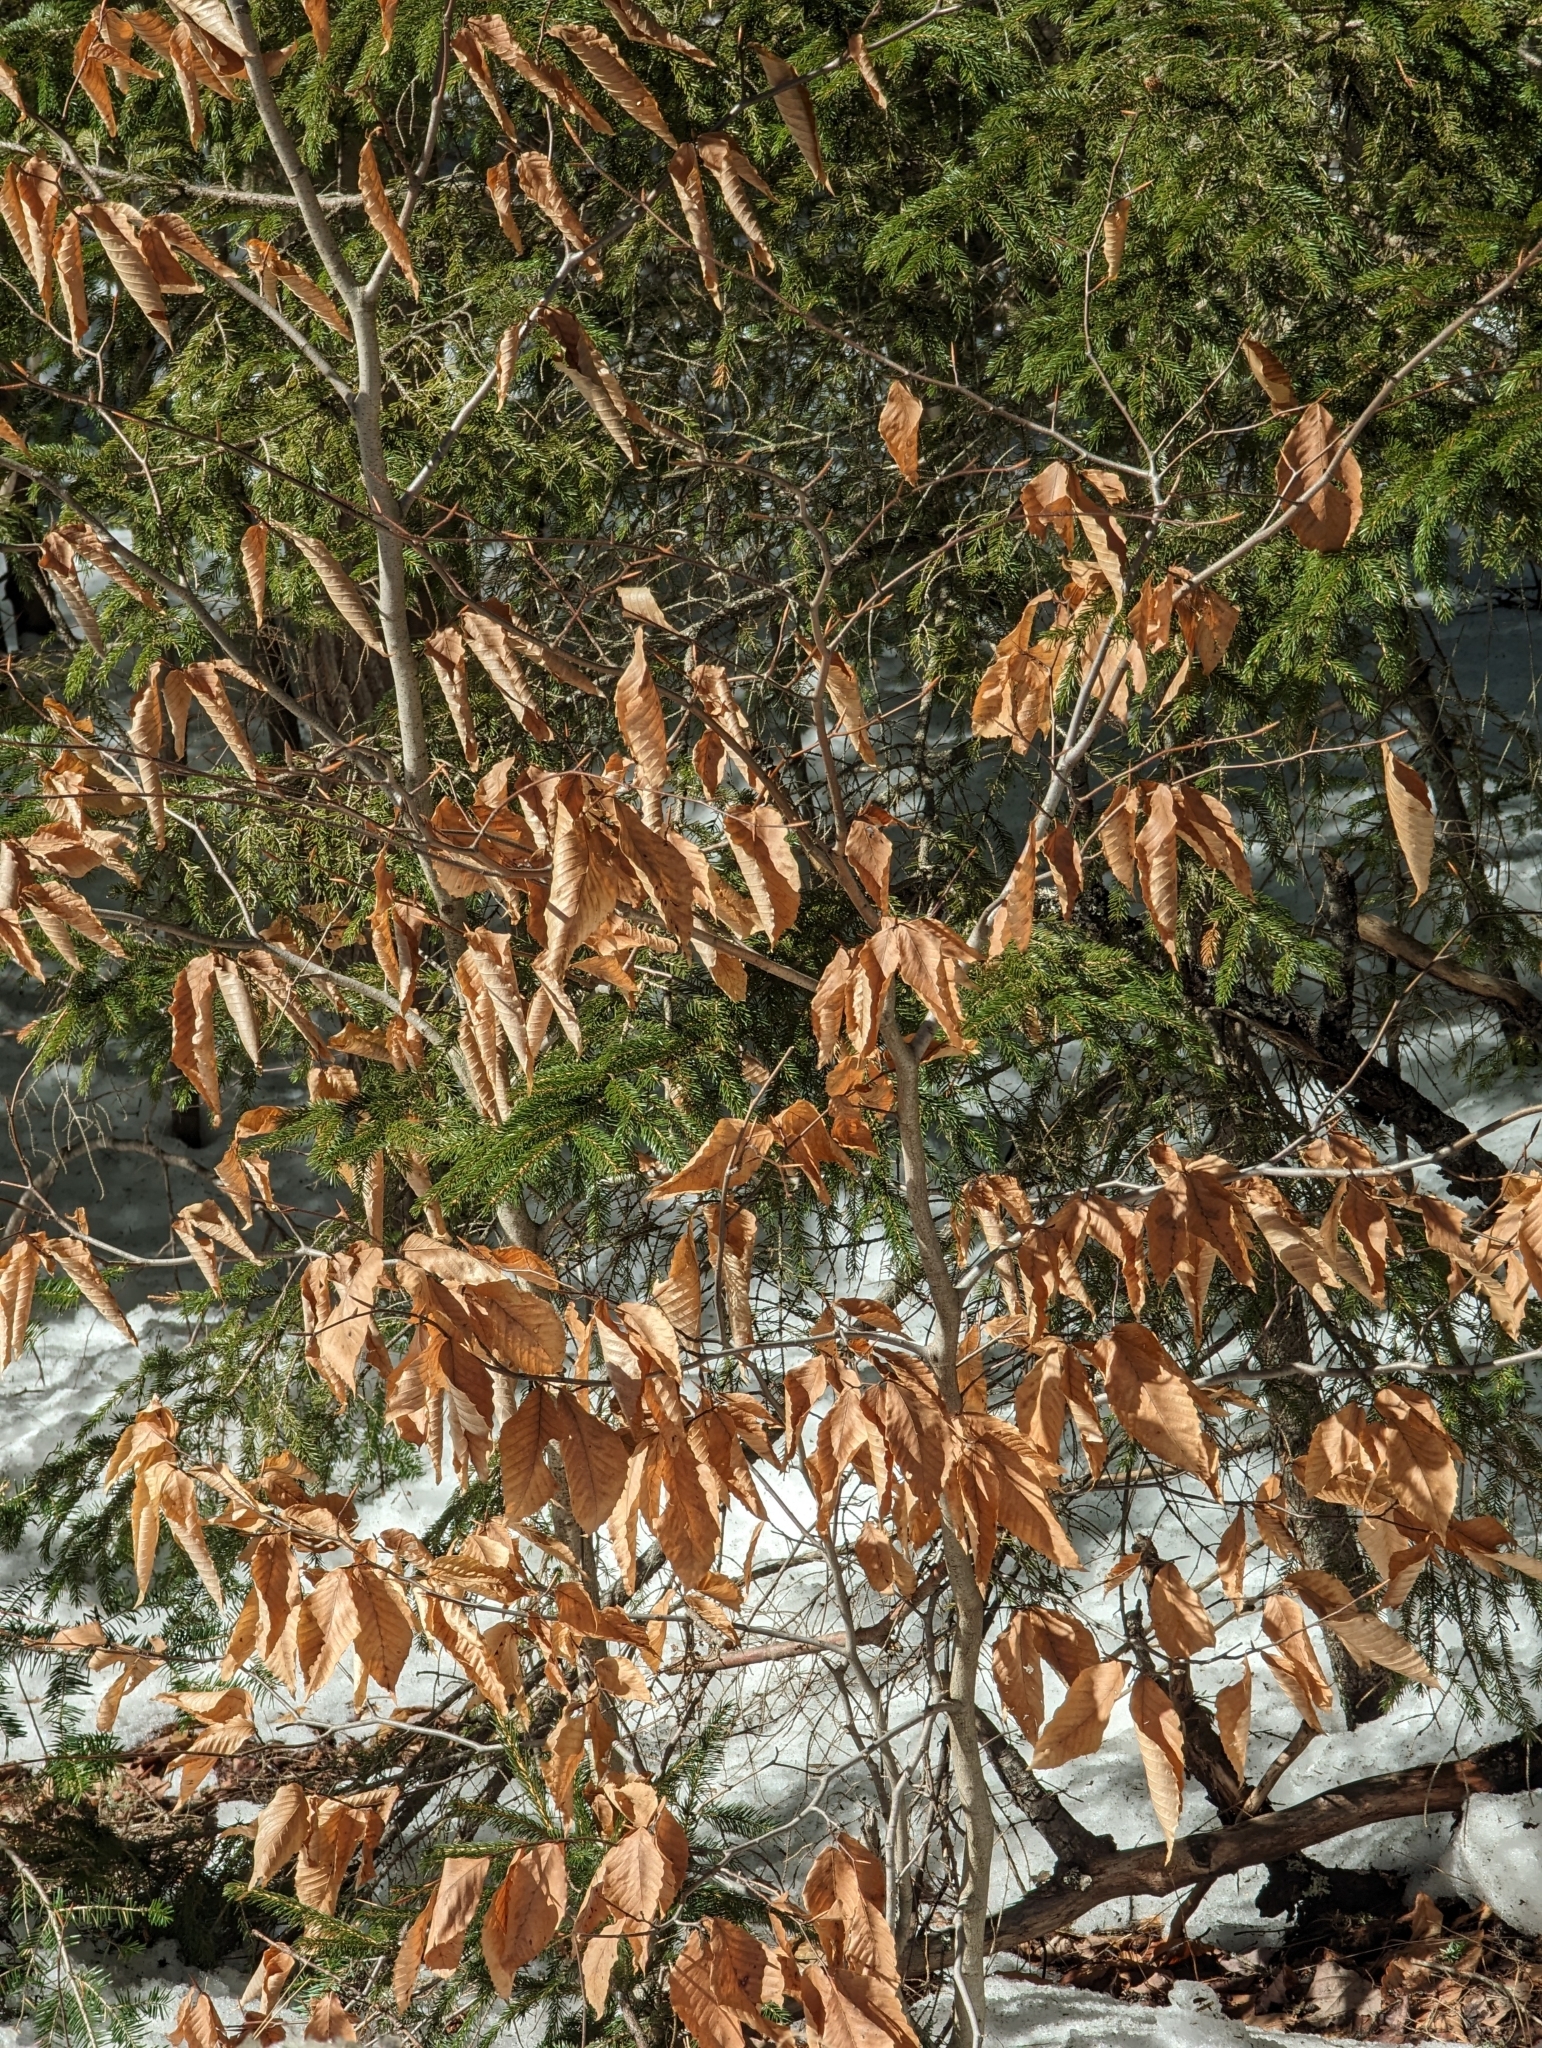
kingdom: Plantae
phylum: Tracheophyta
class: Magnoliopsida
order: Fagales
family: Fagaceae
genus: Fagus
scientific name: Fagus grandifolia
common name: American beech
